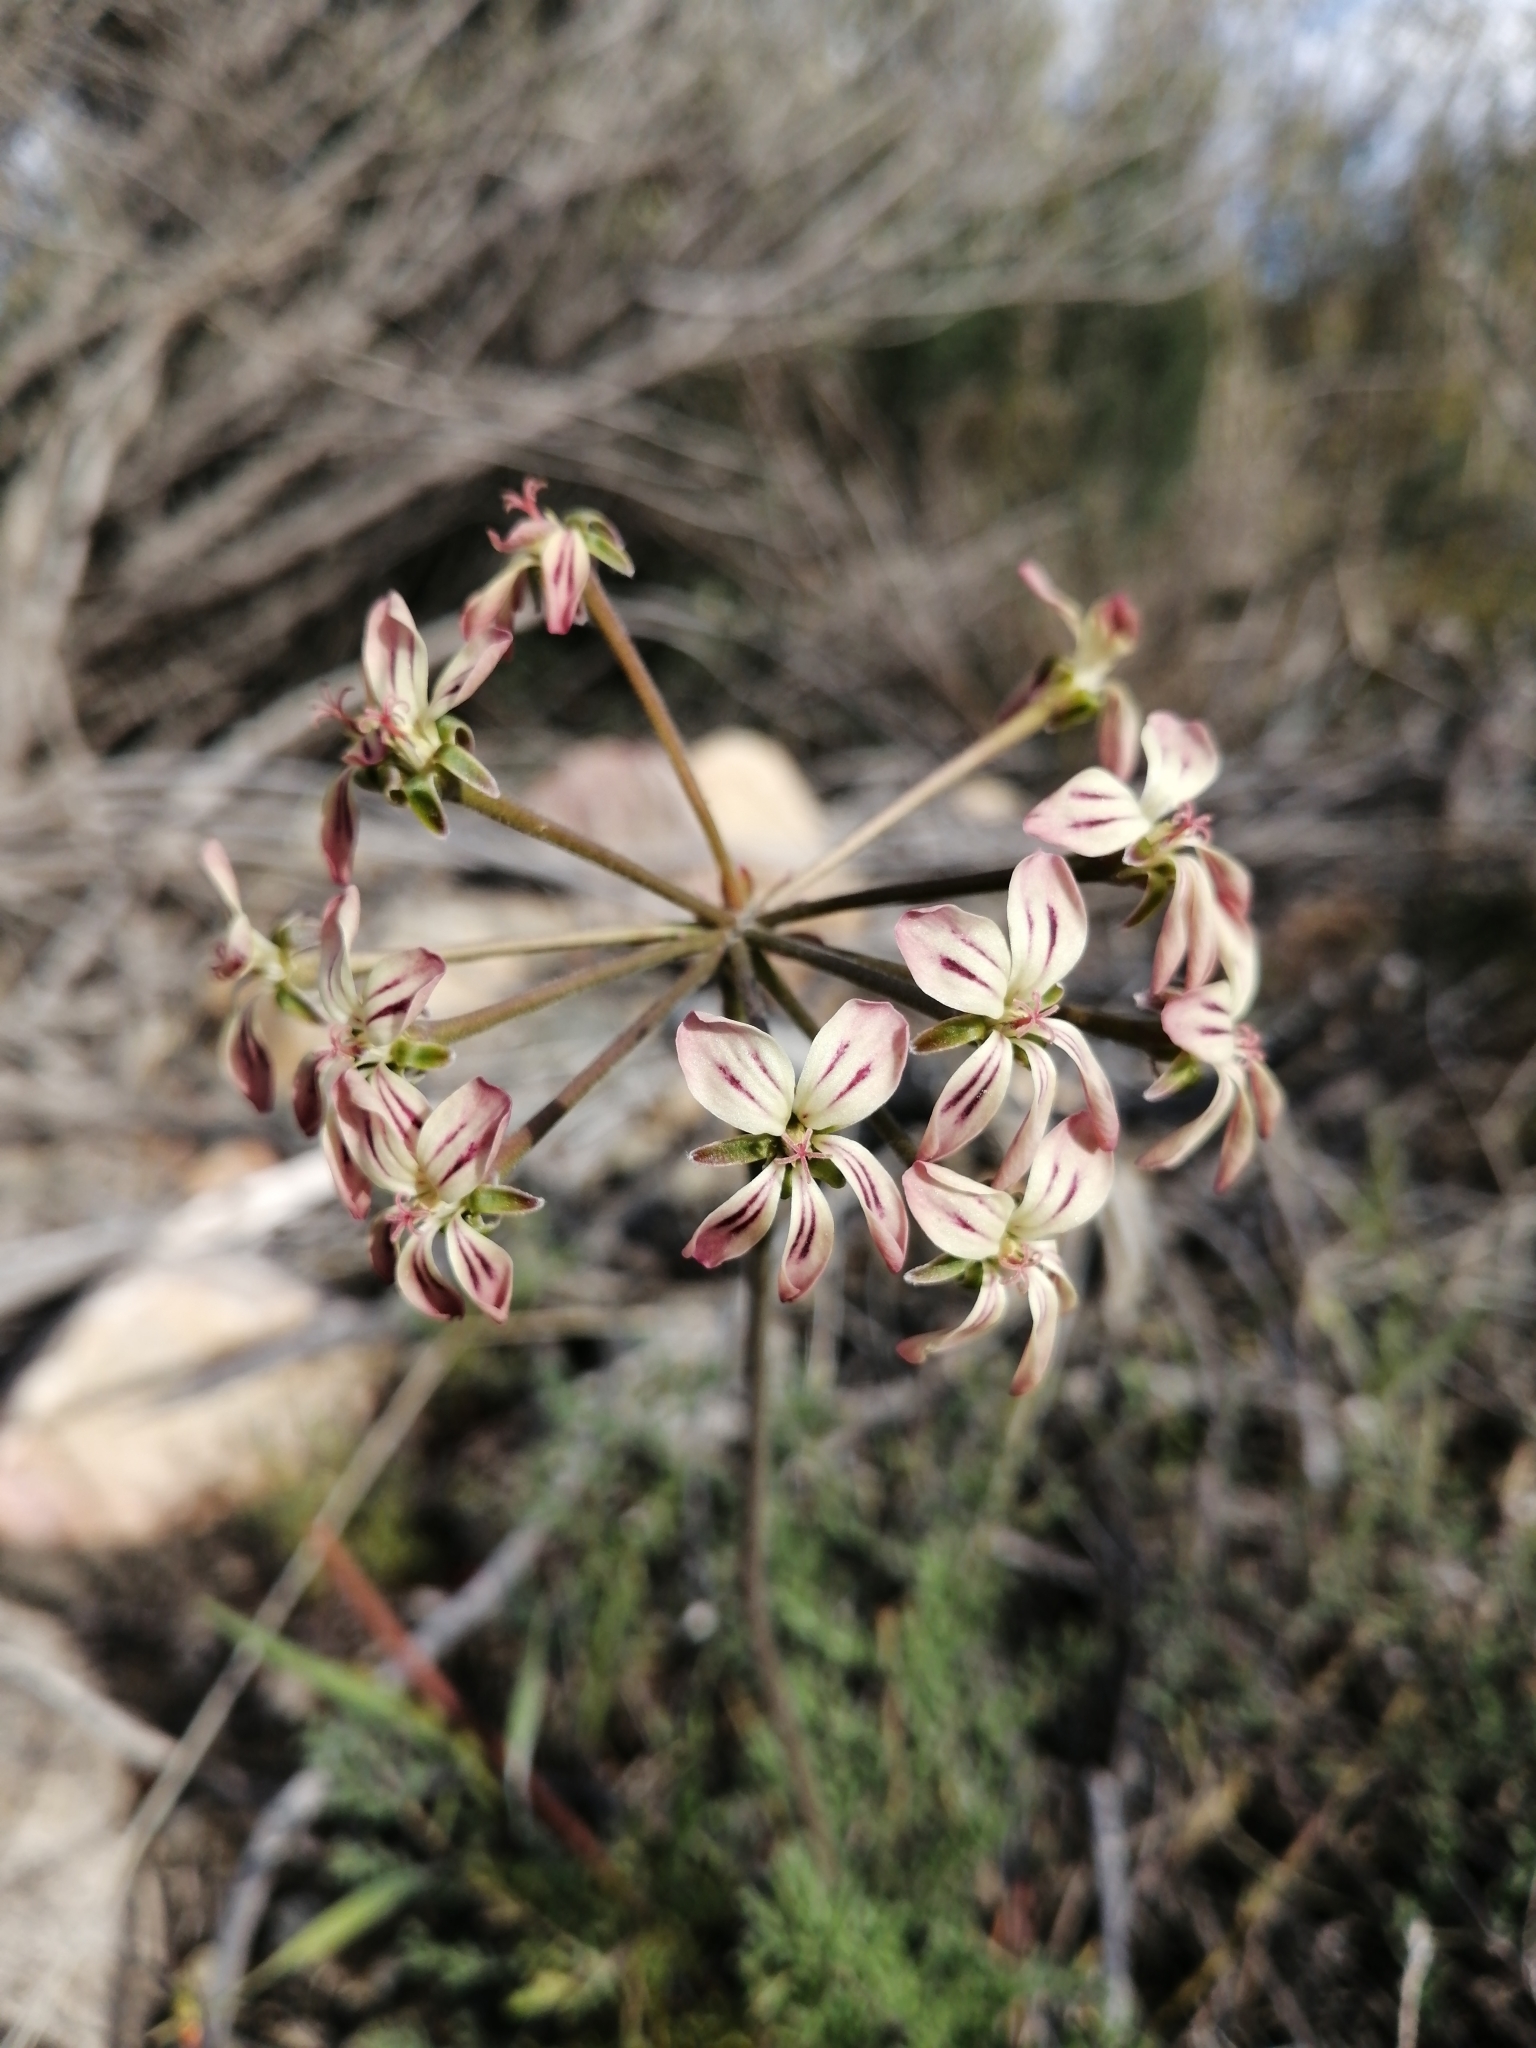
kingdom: Plantae
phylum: Tracheophyta
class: Magnoliopsida
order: Geraniales
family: Geraniaceae
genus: Pelargonium
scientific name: Pelargonium triste
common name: Night-scent pelargonium
